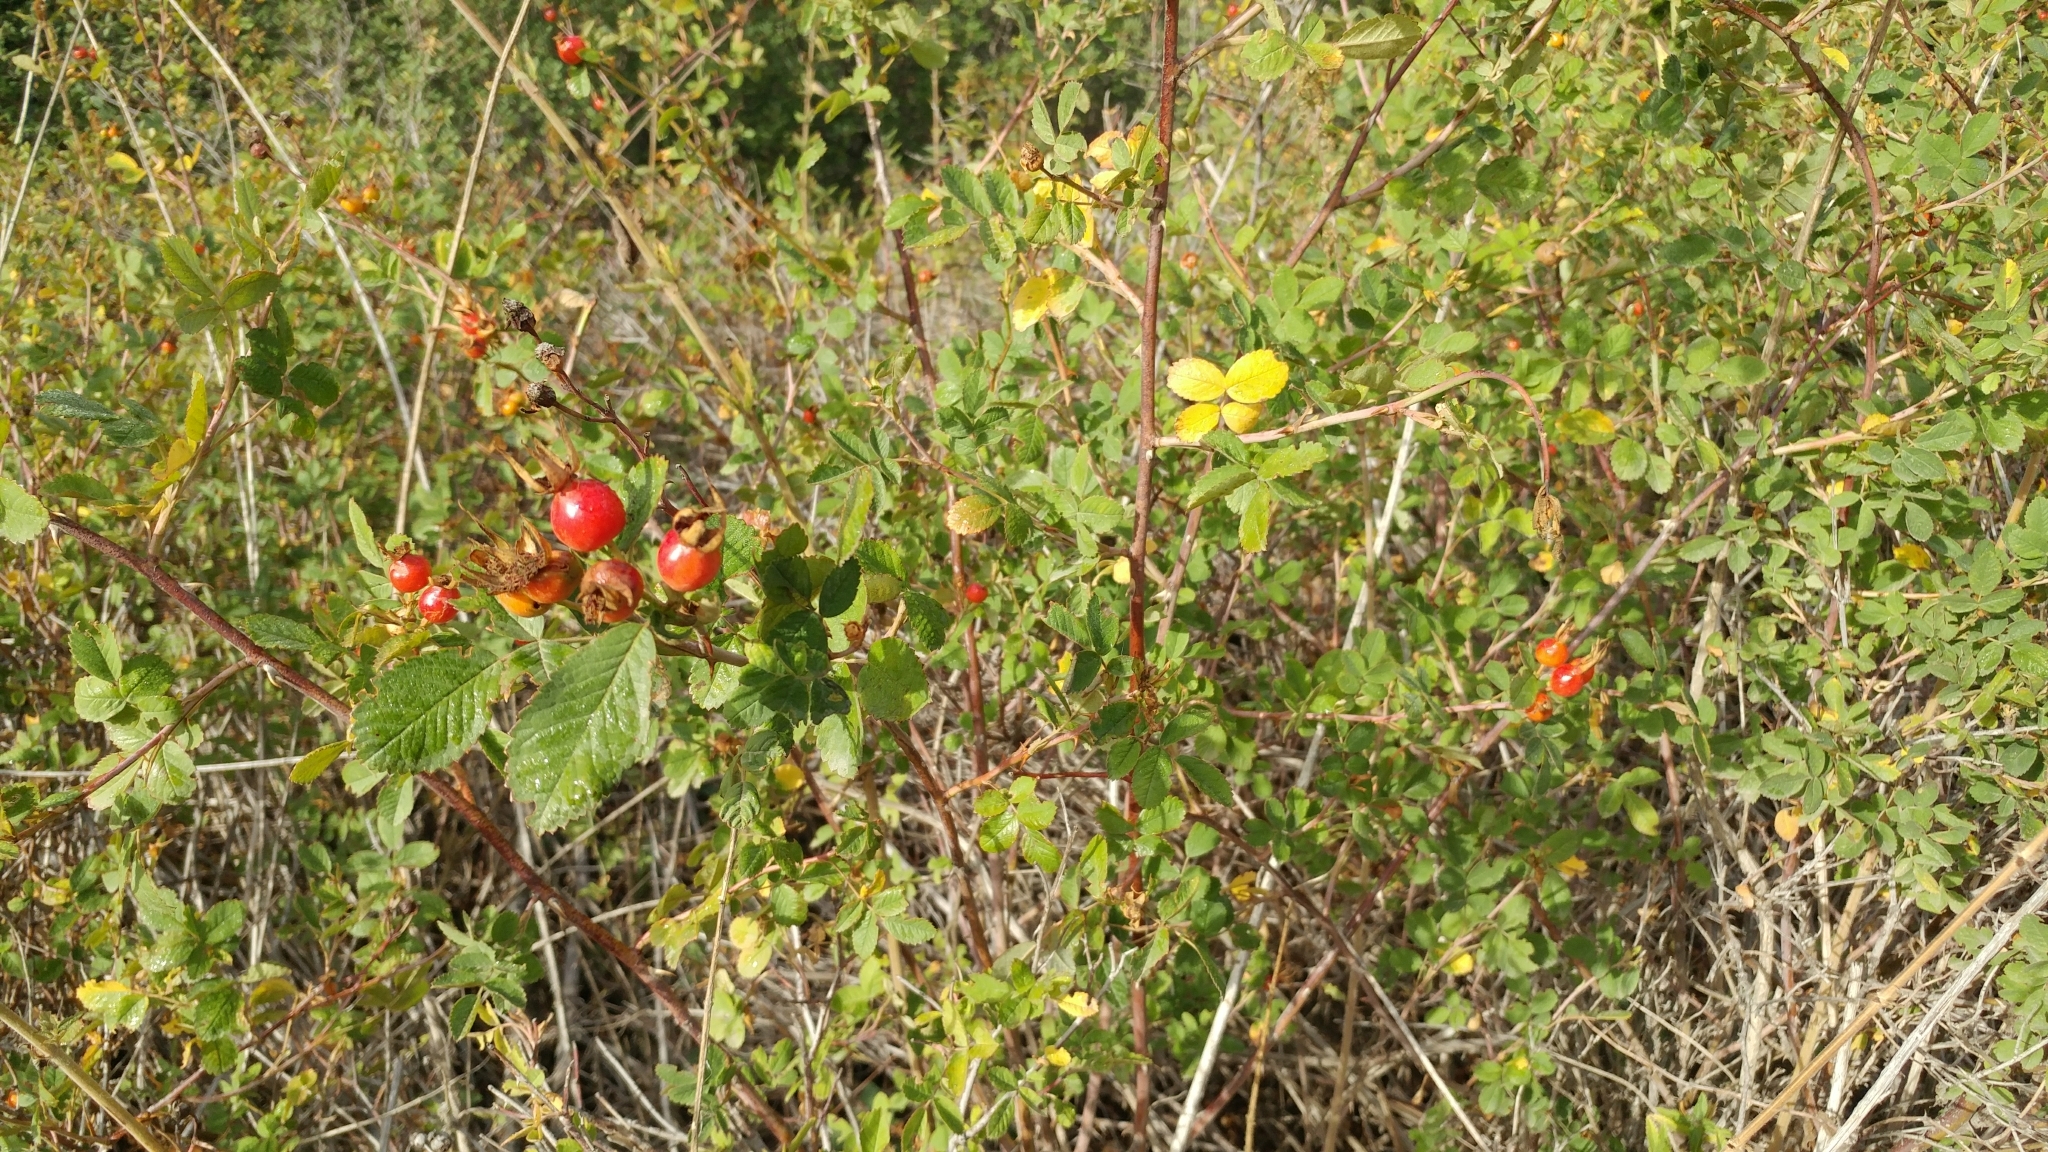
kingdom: Plantae
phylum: Tracheophyta
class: Magnoliopsida
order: Rosales
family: Rosaceae
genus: Rosa
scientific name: Rosa californica
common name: California rose
